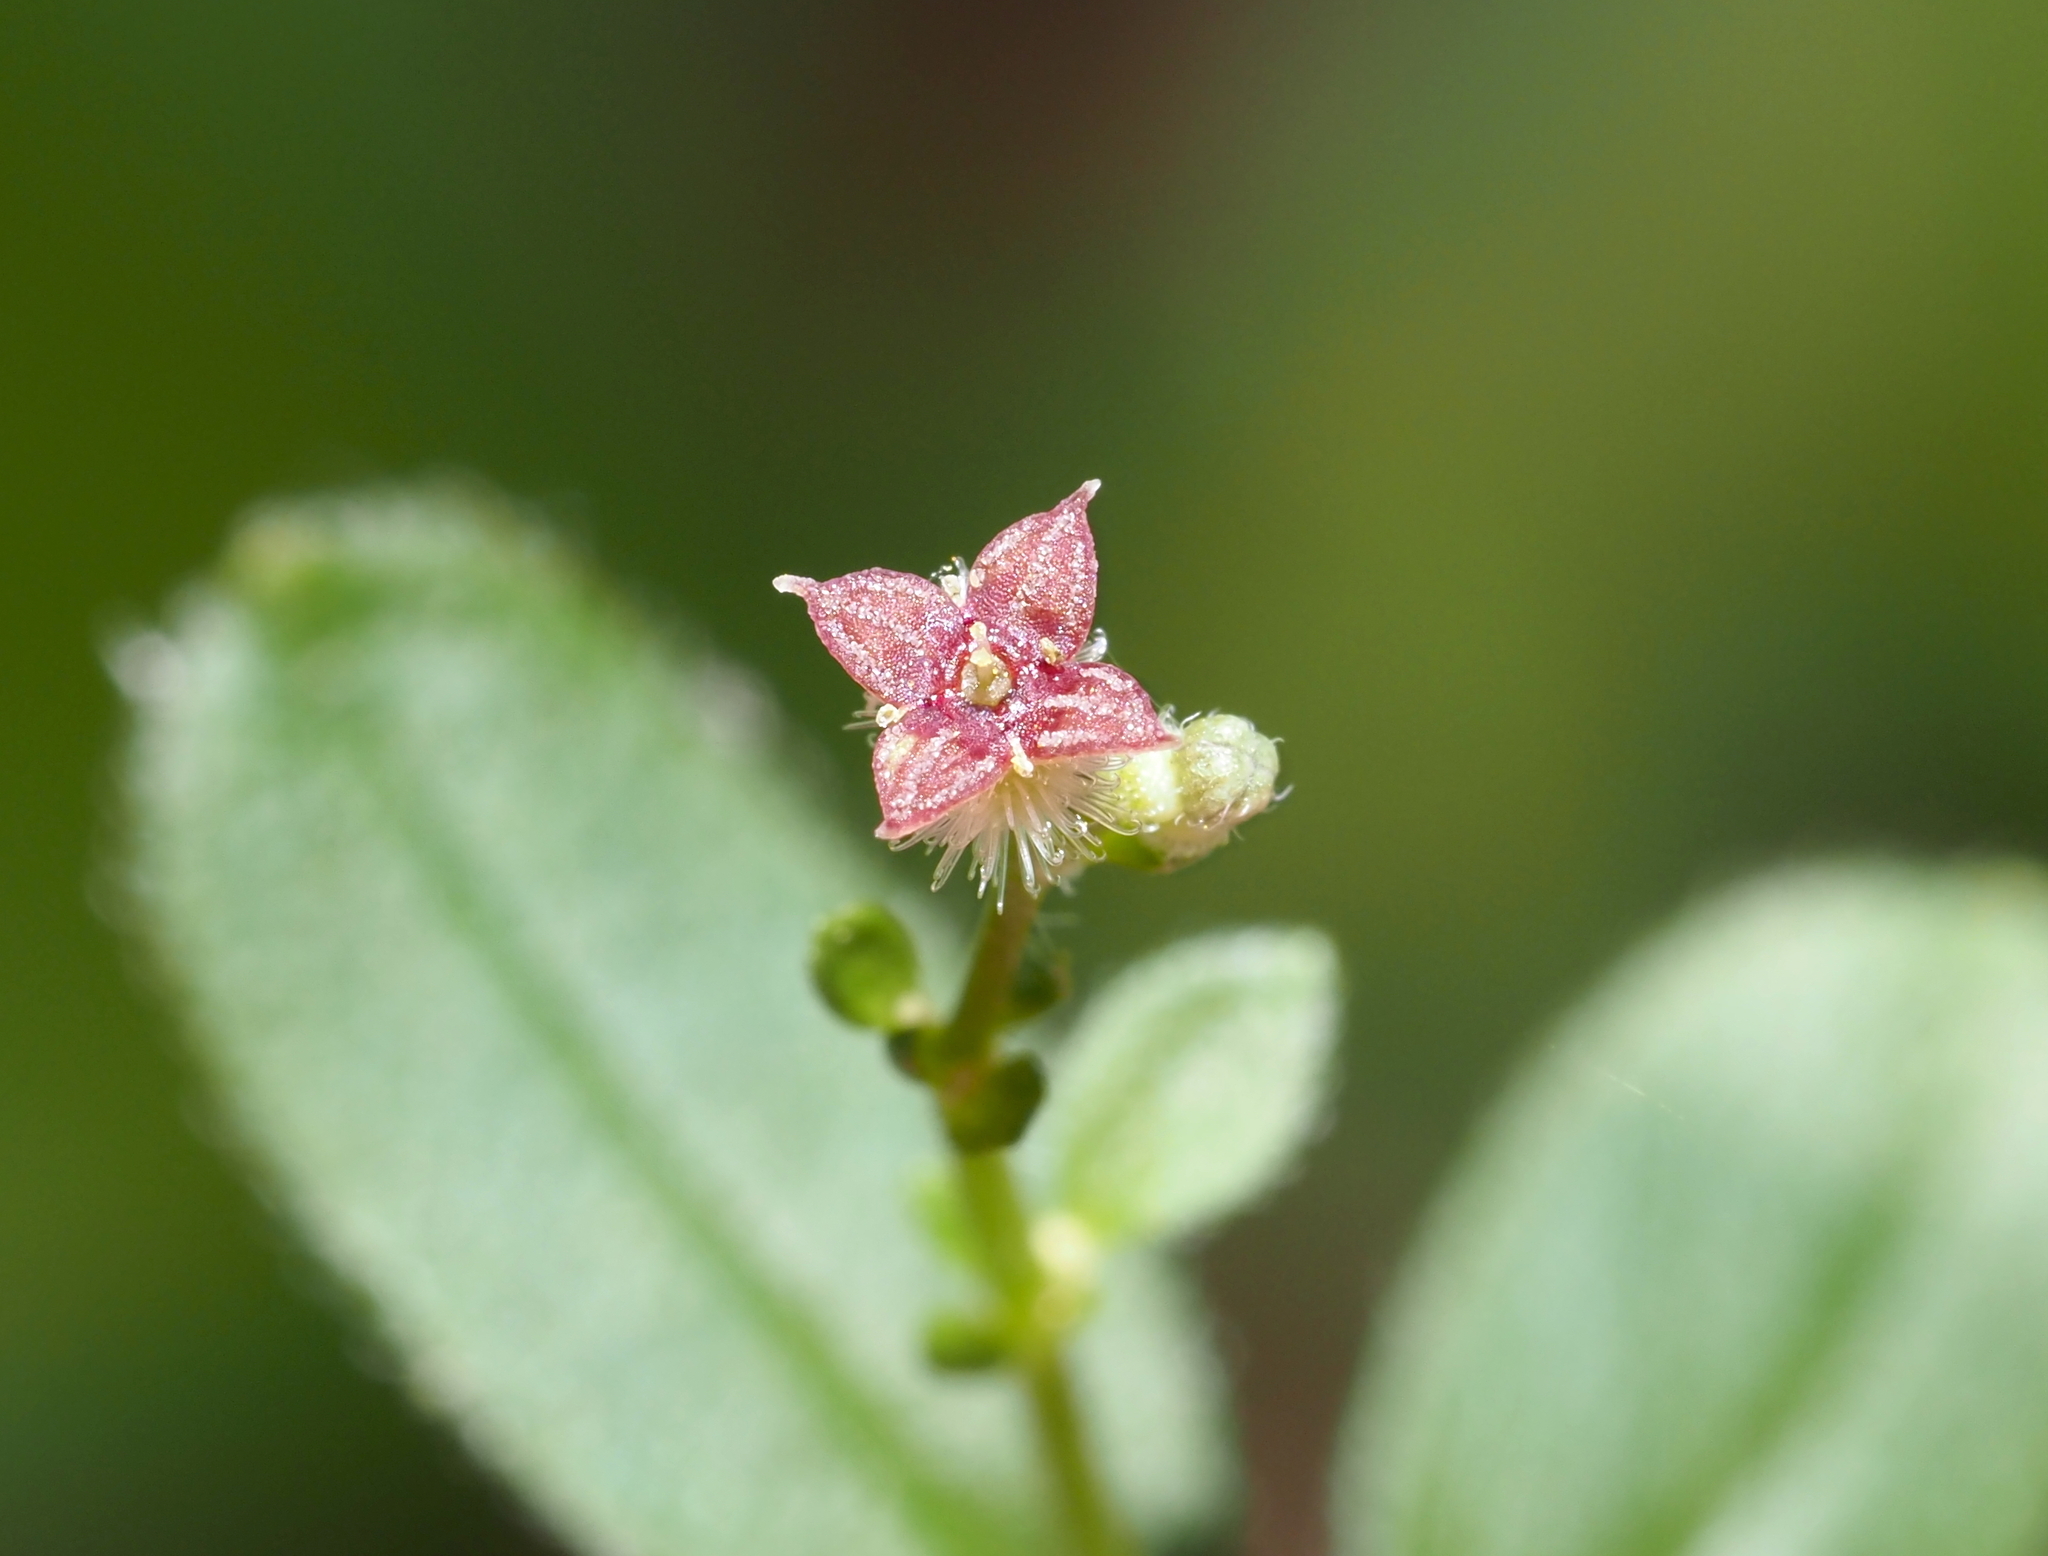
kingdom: Plantae
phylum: Tracheophyta
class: Magnoliopsida
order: Gentianales
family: Rubiaceae
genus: Galium
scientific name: Galium pilosum
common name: Hairy bedstraw
